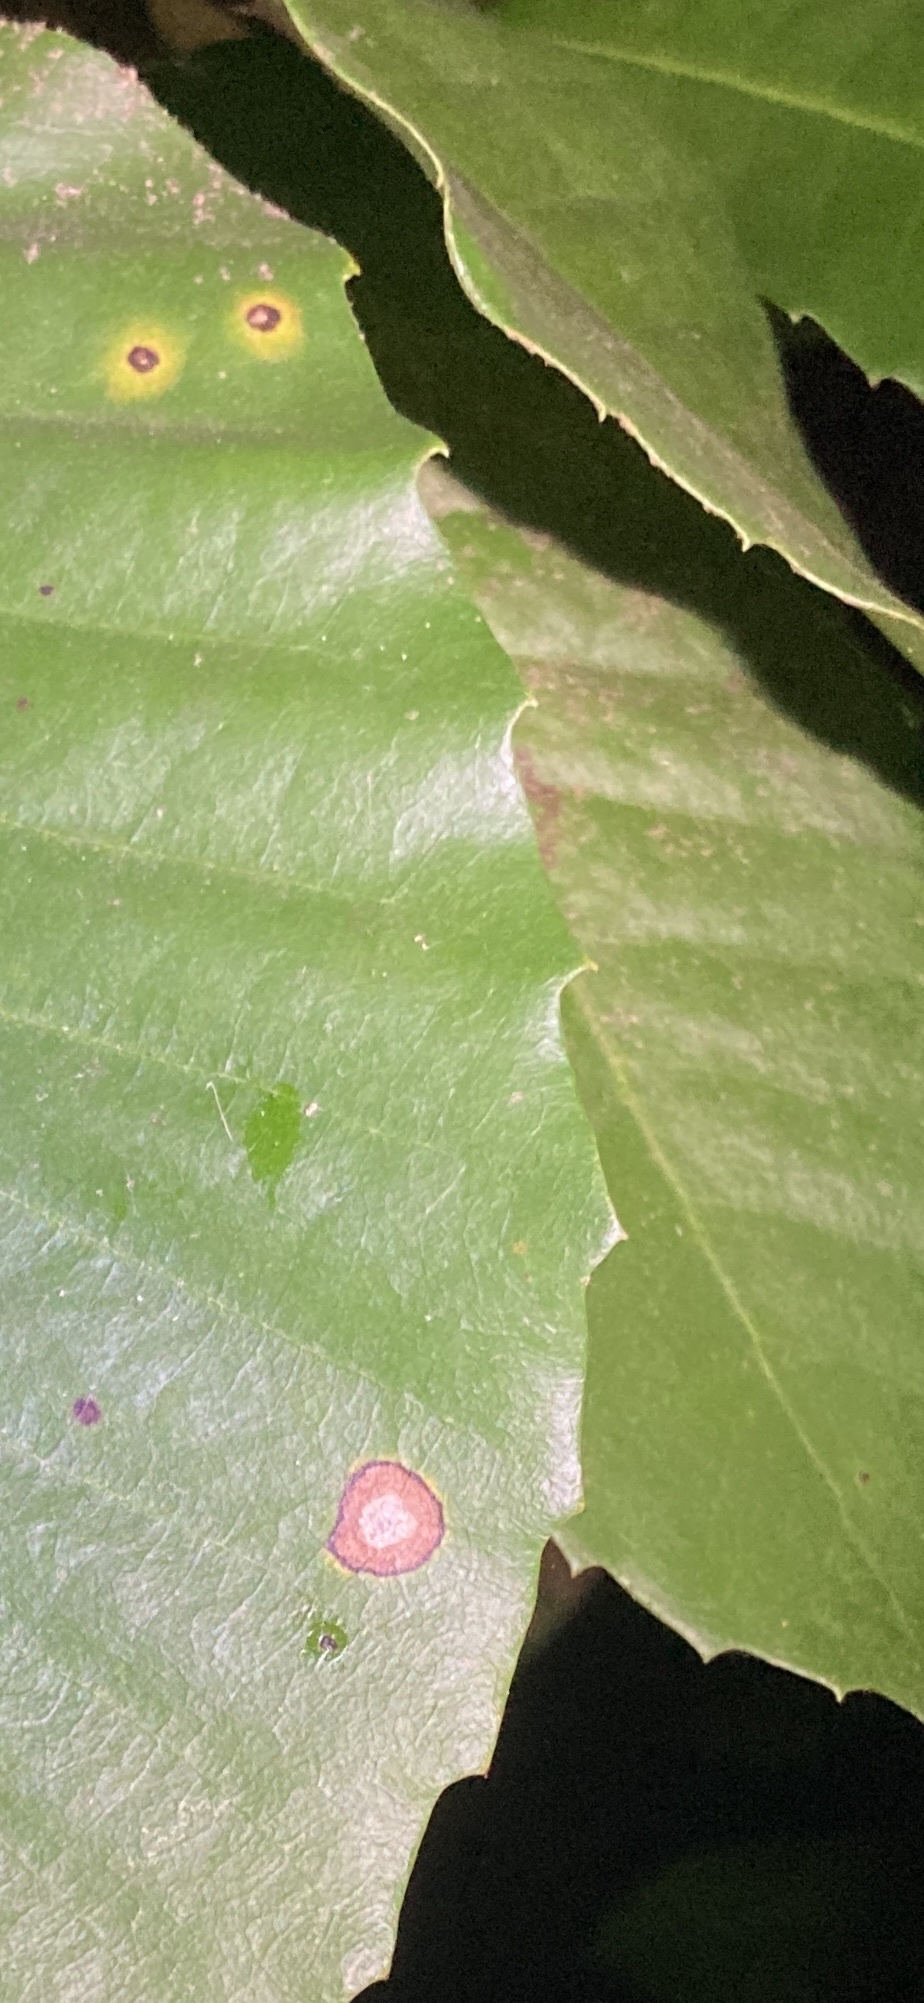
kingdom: Plantae
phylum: Tracheophyta
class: Magnoliopsida
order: Fagales
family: Fagaceae
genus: Notholithocarpus
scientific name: Notholithocarpus densiflorus
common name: Tan bark oak
